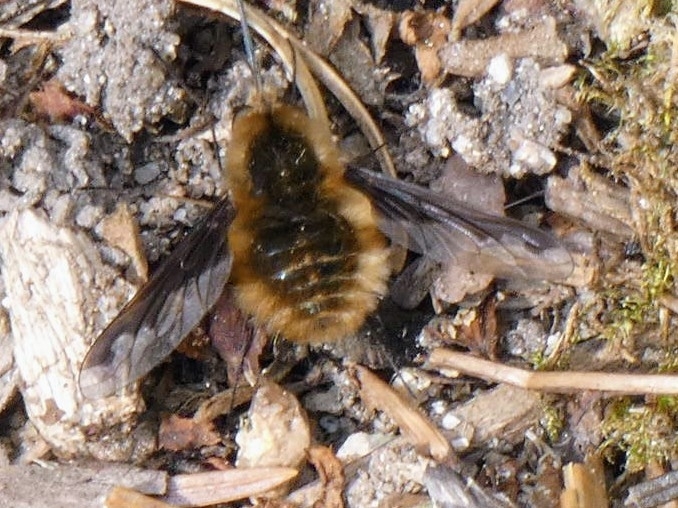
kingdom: Animalia
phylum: Arthropoda
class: Insecta
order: Diptera
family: Bombyliidae
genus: Bombylius
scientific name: Bombylius major
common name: Bee fly
